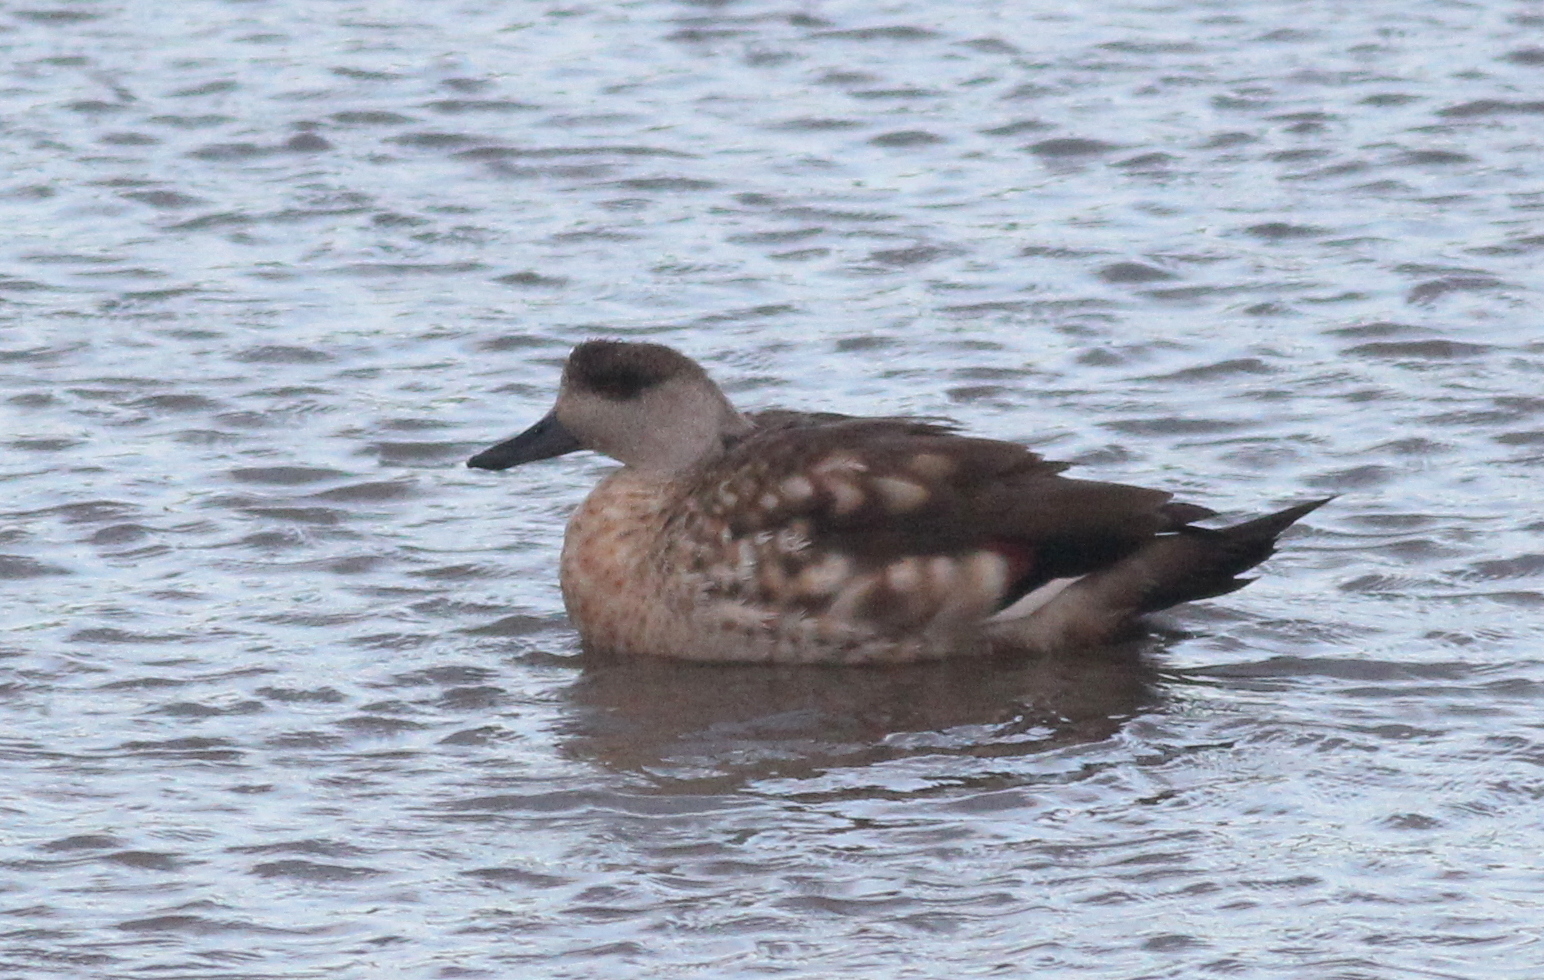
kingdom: Animalia
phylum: Chordata
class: Aves
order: Anseriformes
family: Anatidae
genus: Lophonetta
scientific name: Lophonetta specularioides
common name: Crested duck
